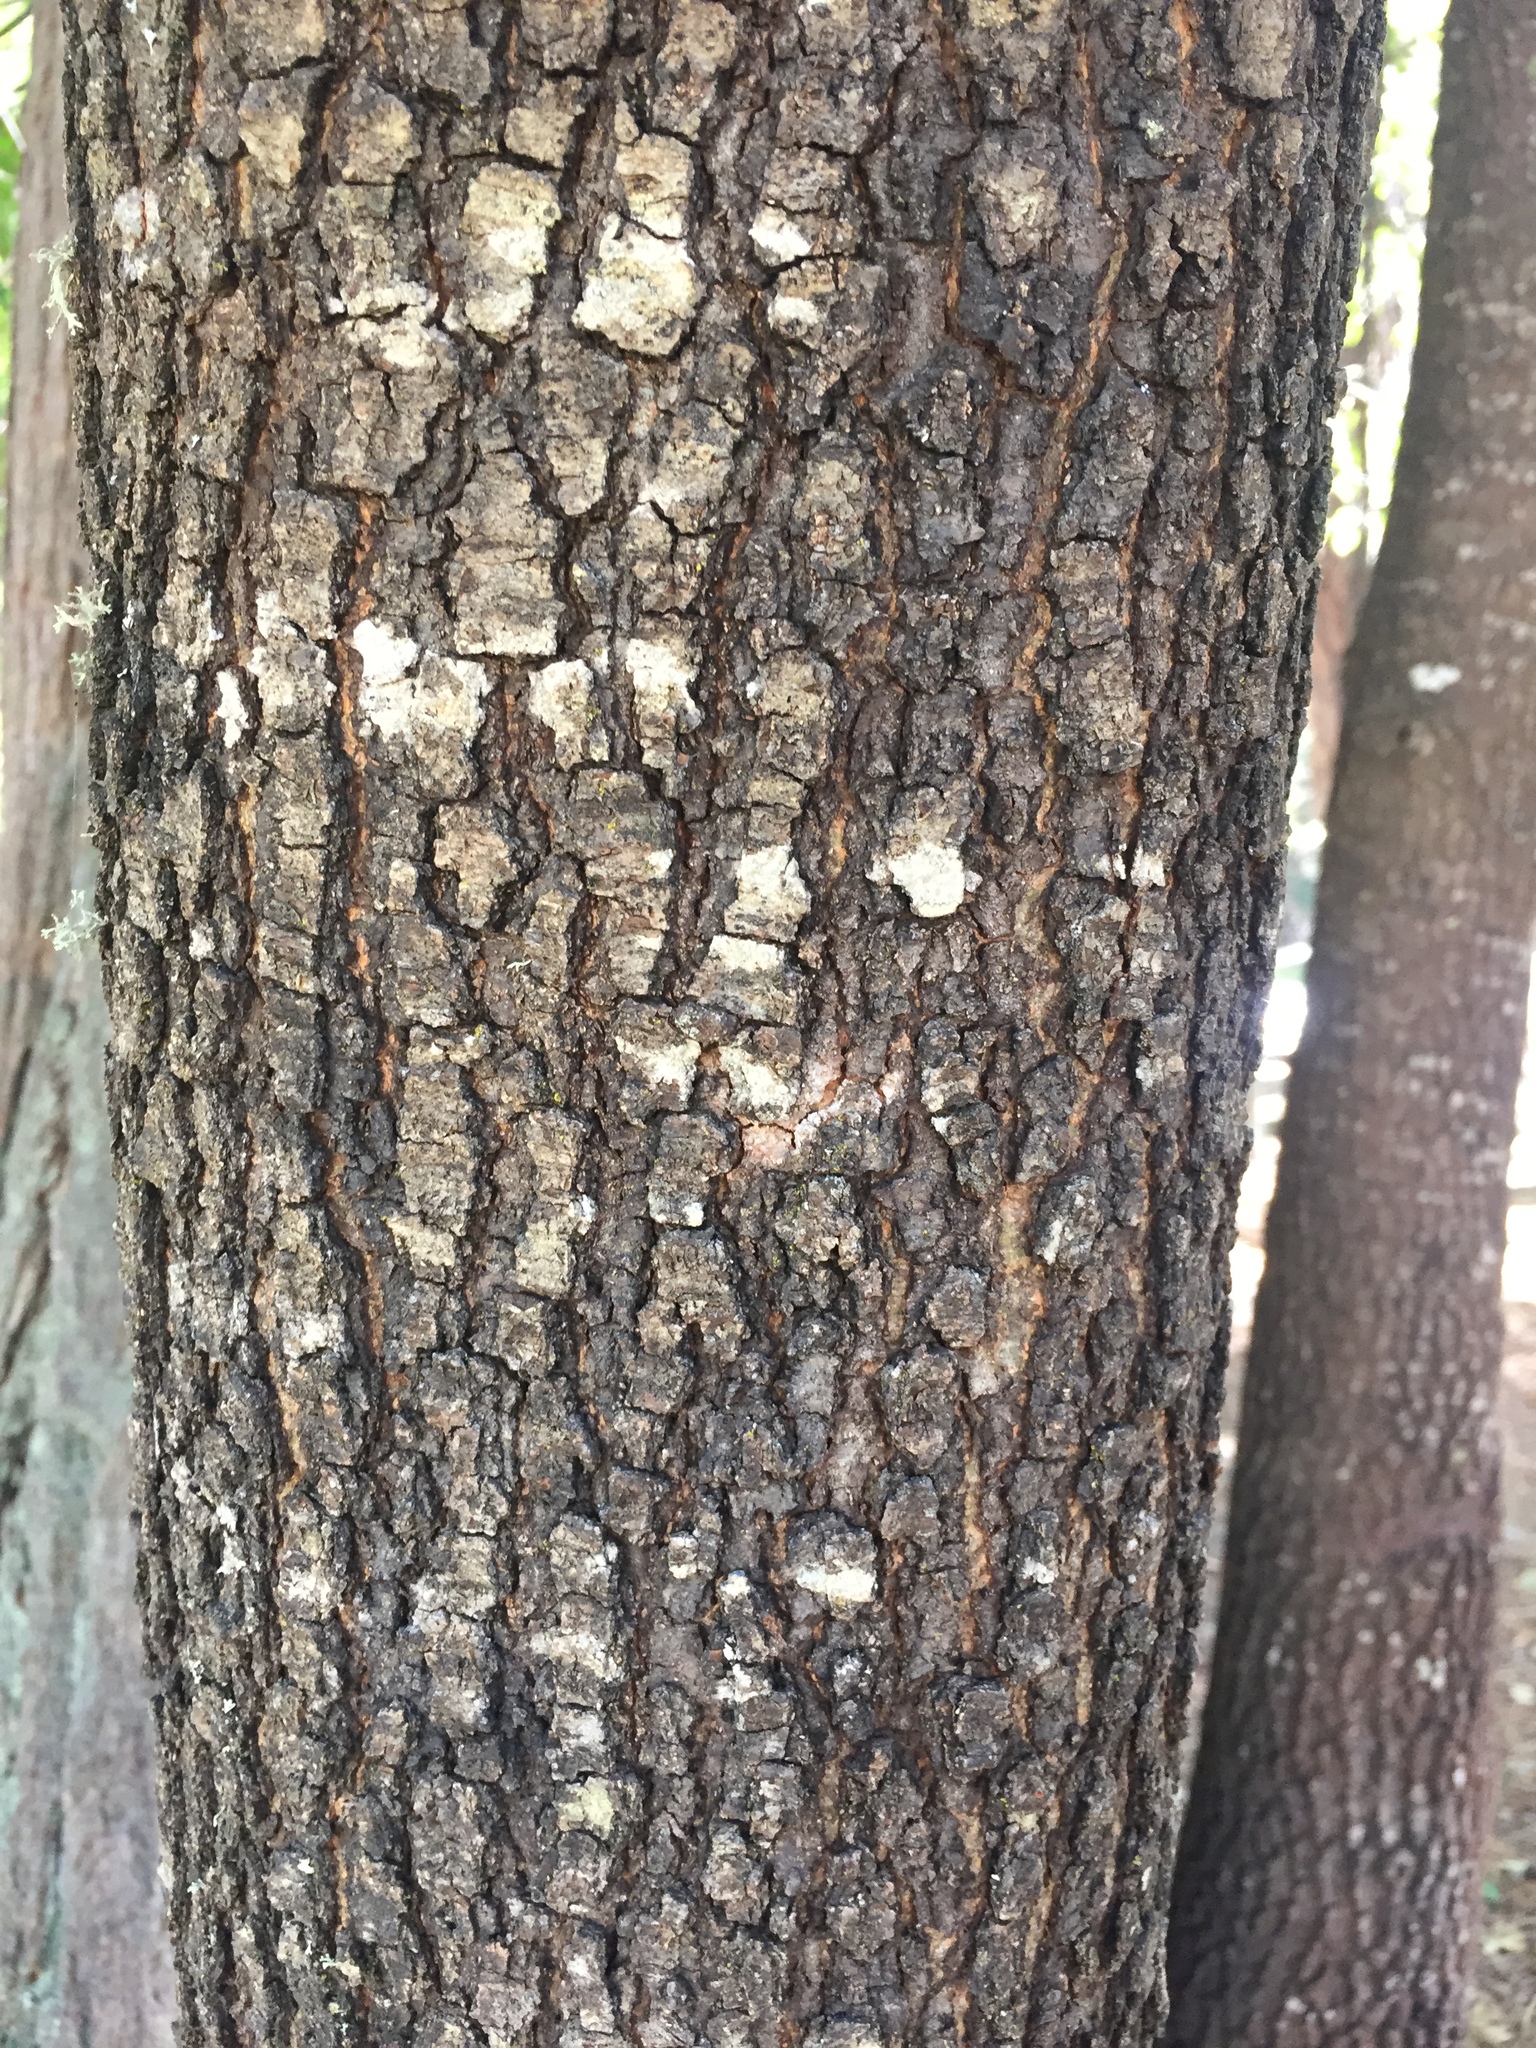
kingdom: Plantae
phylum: Tracheophyta
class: Magnoliopsida
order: Fagales
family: Fagaceae
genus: Quercus
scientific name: Quercus kelloggii
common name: California black oak
